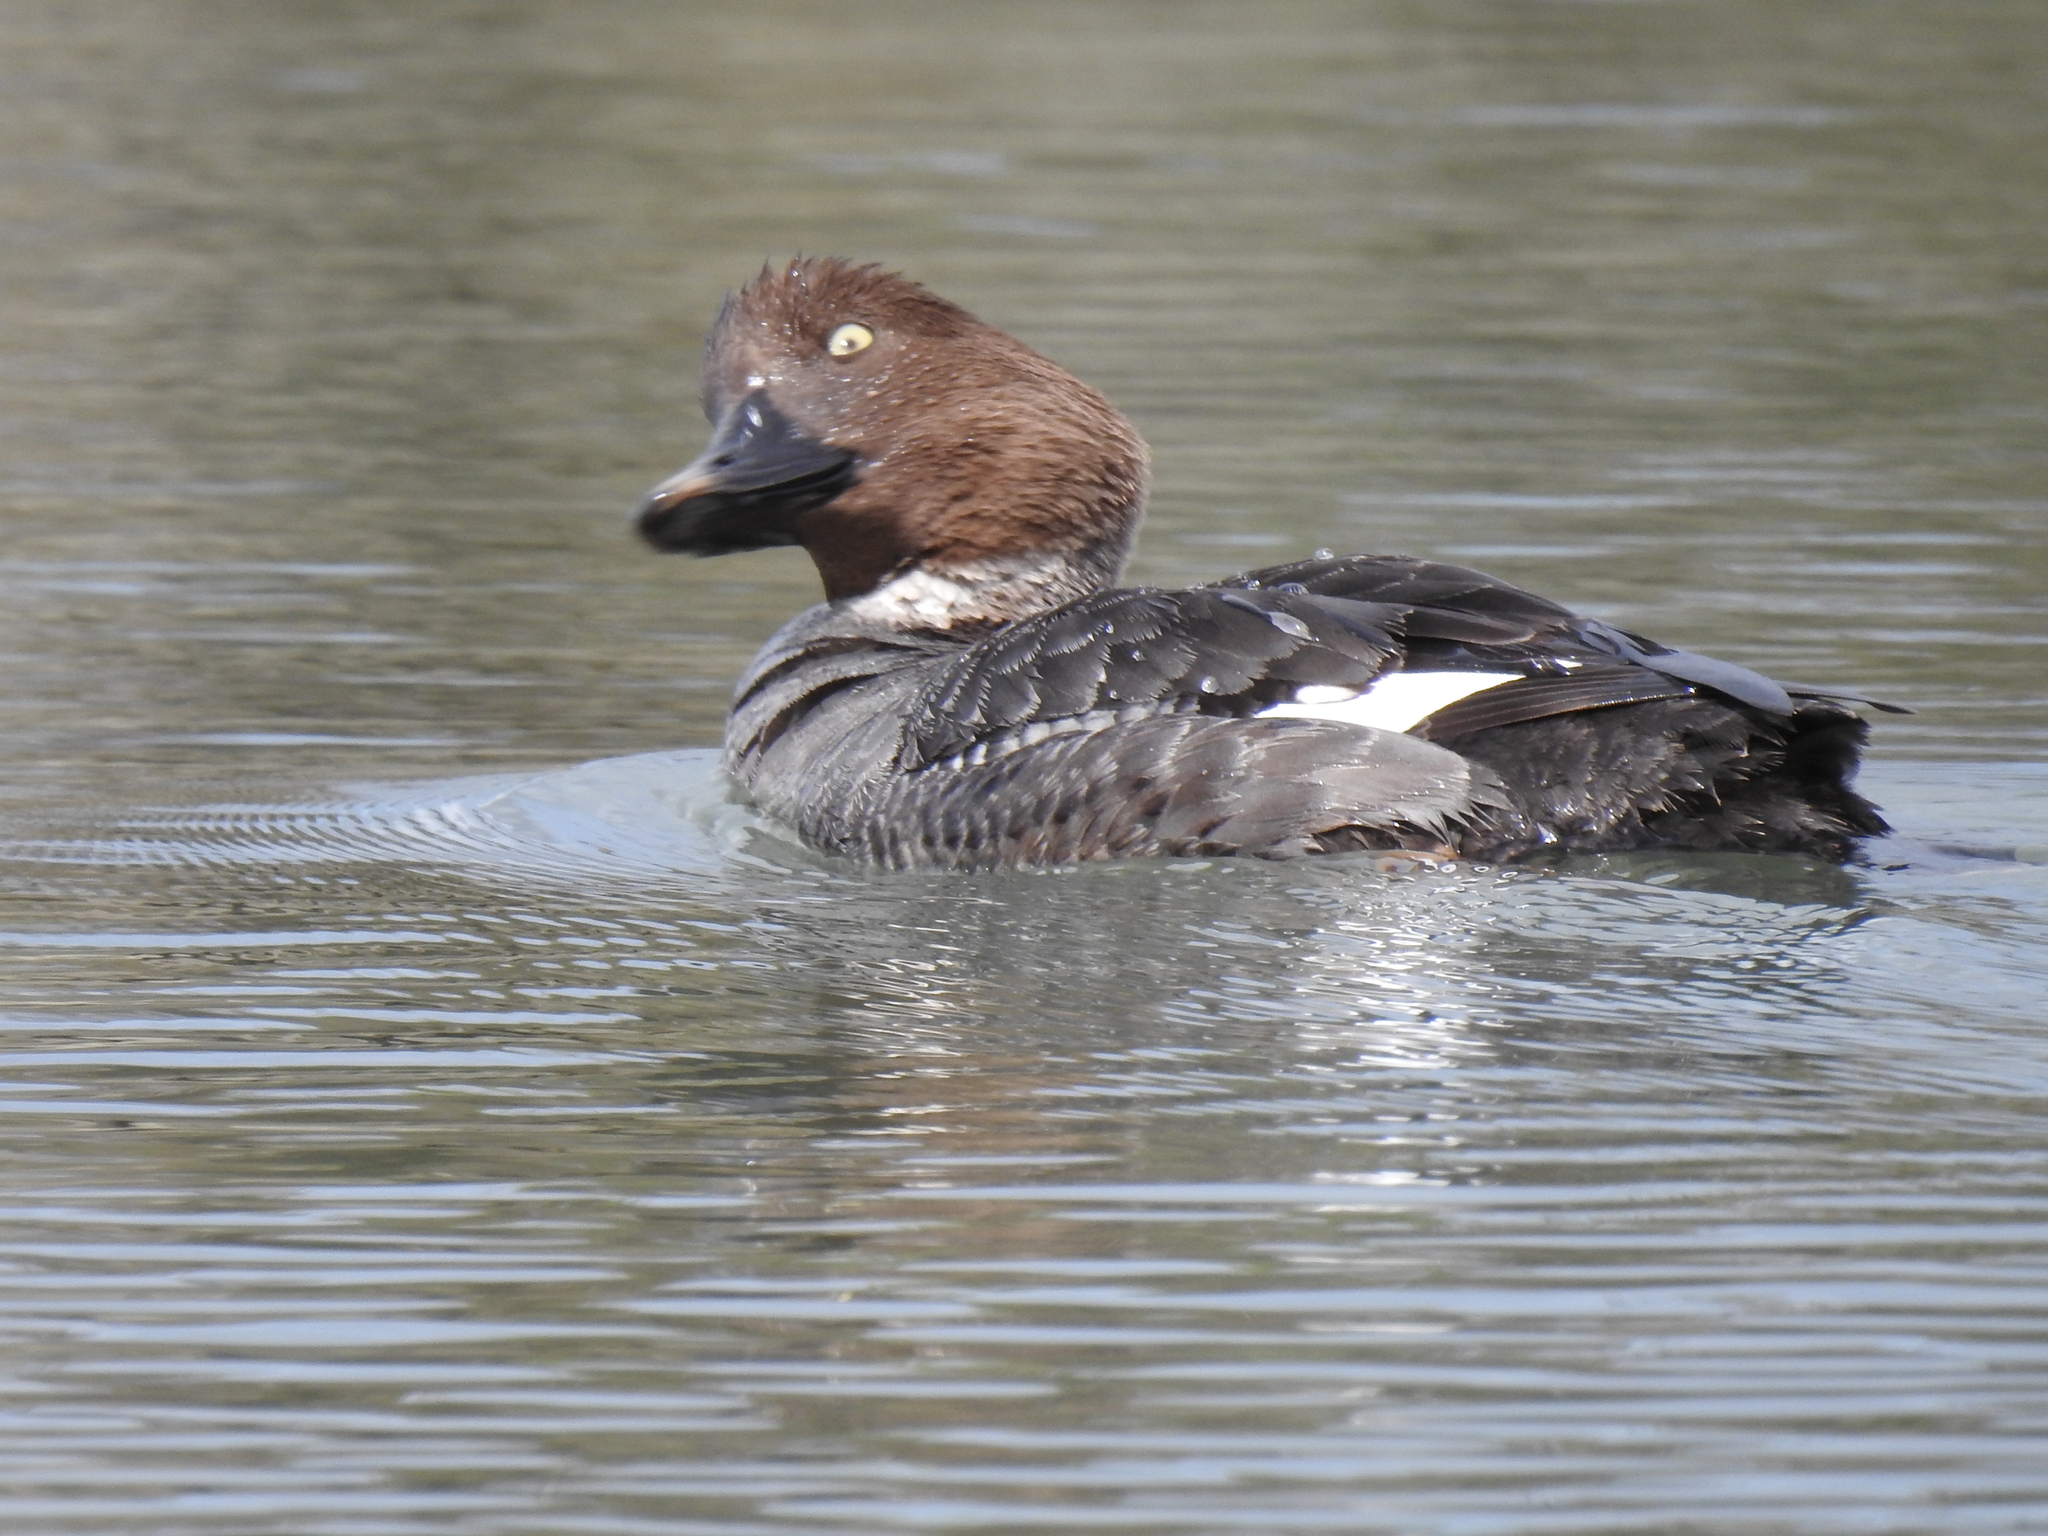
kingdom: Animalia
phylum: Chordata
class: Aves
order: Anseriformes
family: Anatidae
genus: Bucephala
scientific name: Bucephala clangula
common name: Common goldeneye
